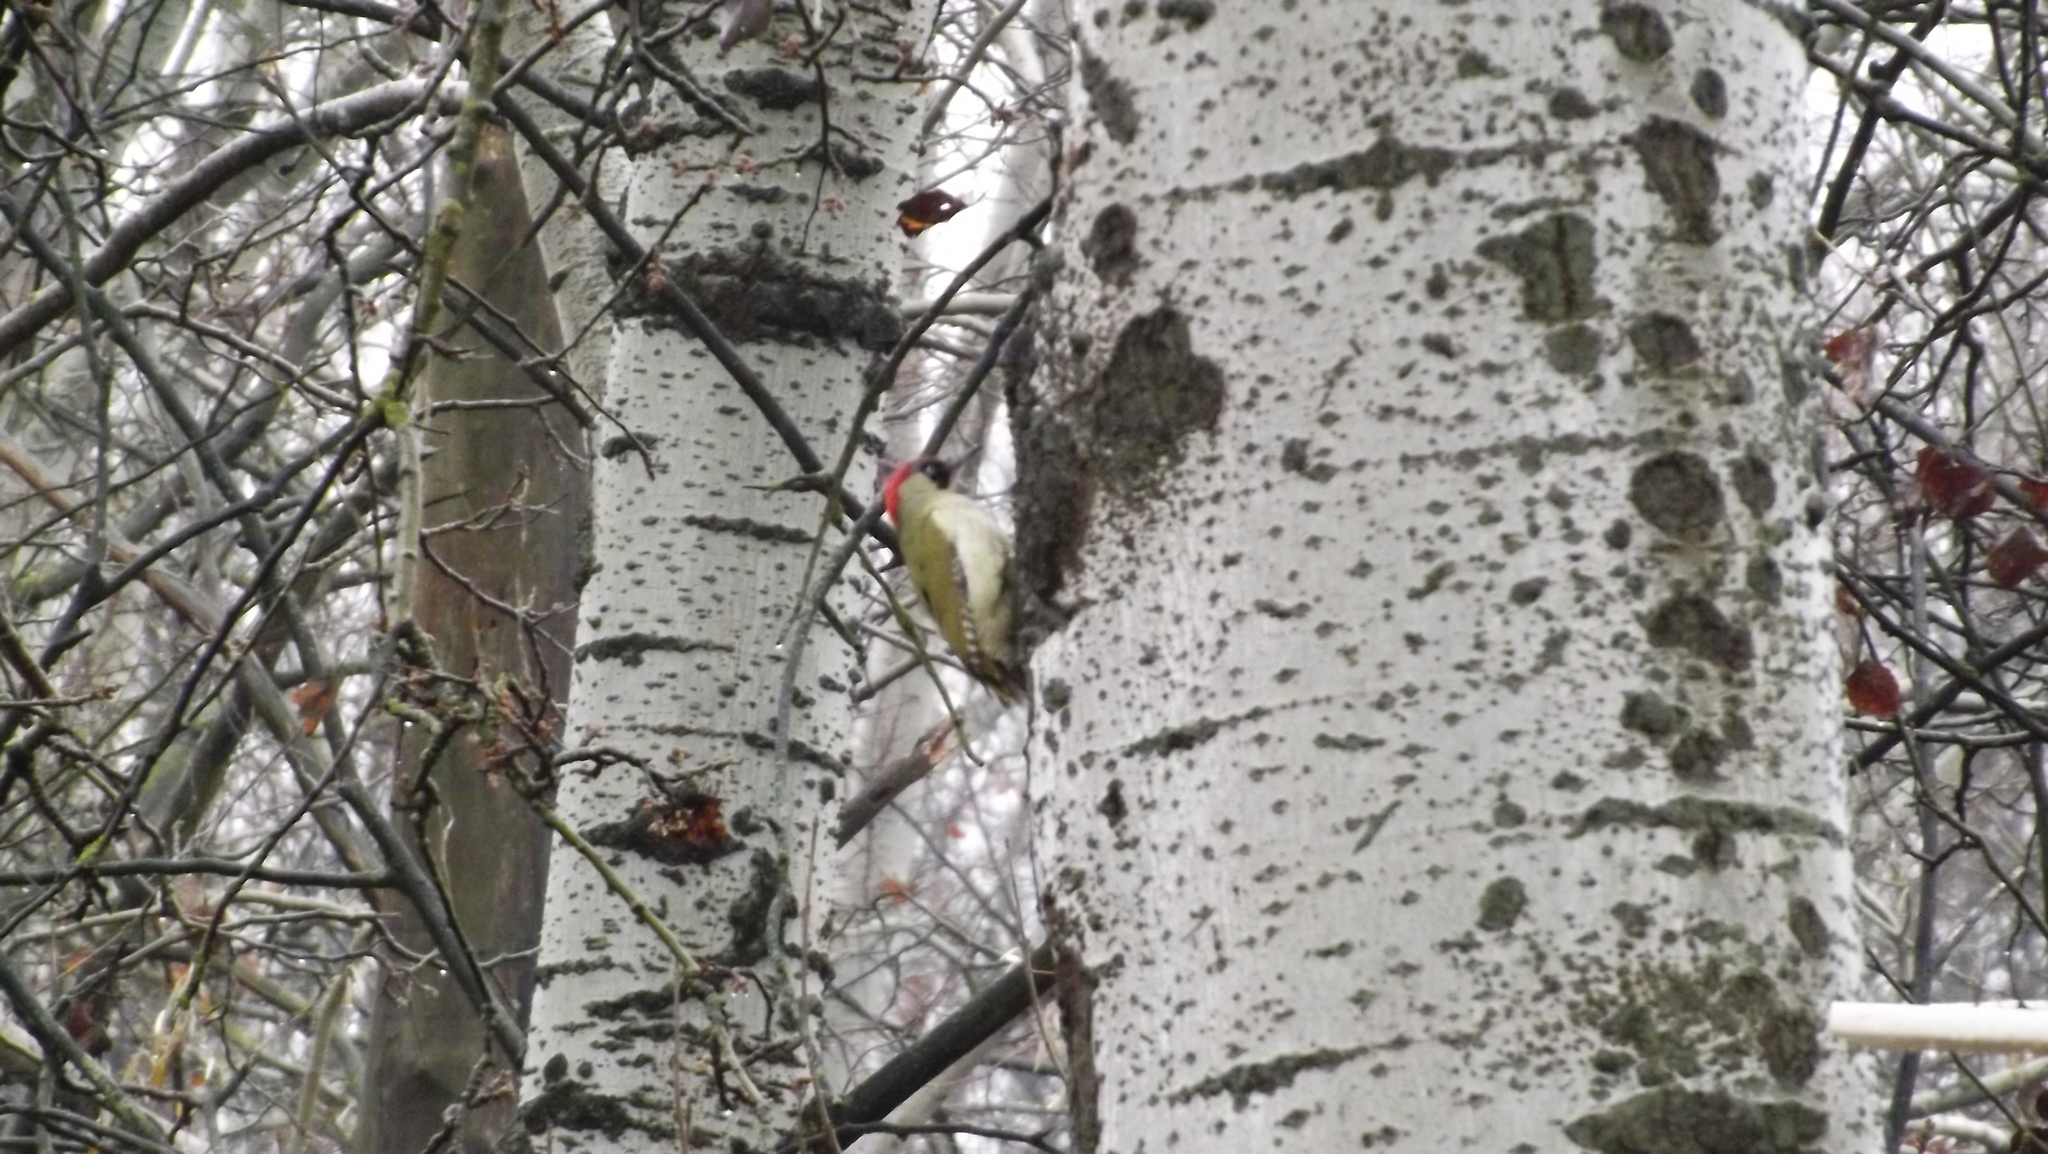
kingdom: Animalia
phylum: Chordata
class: Aves
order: Piciformes
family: Picidae
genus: Picus
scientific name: Picus viridis
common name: European green woodpecker
